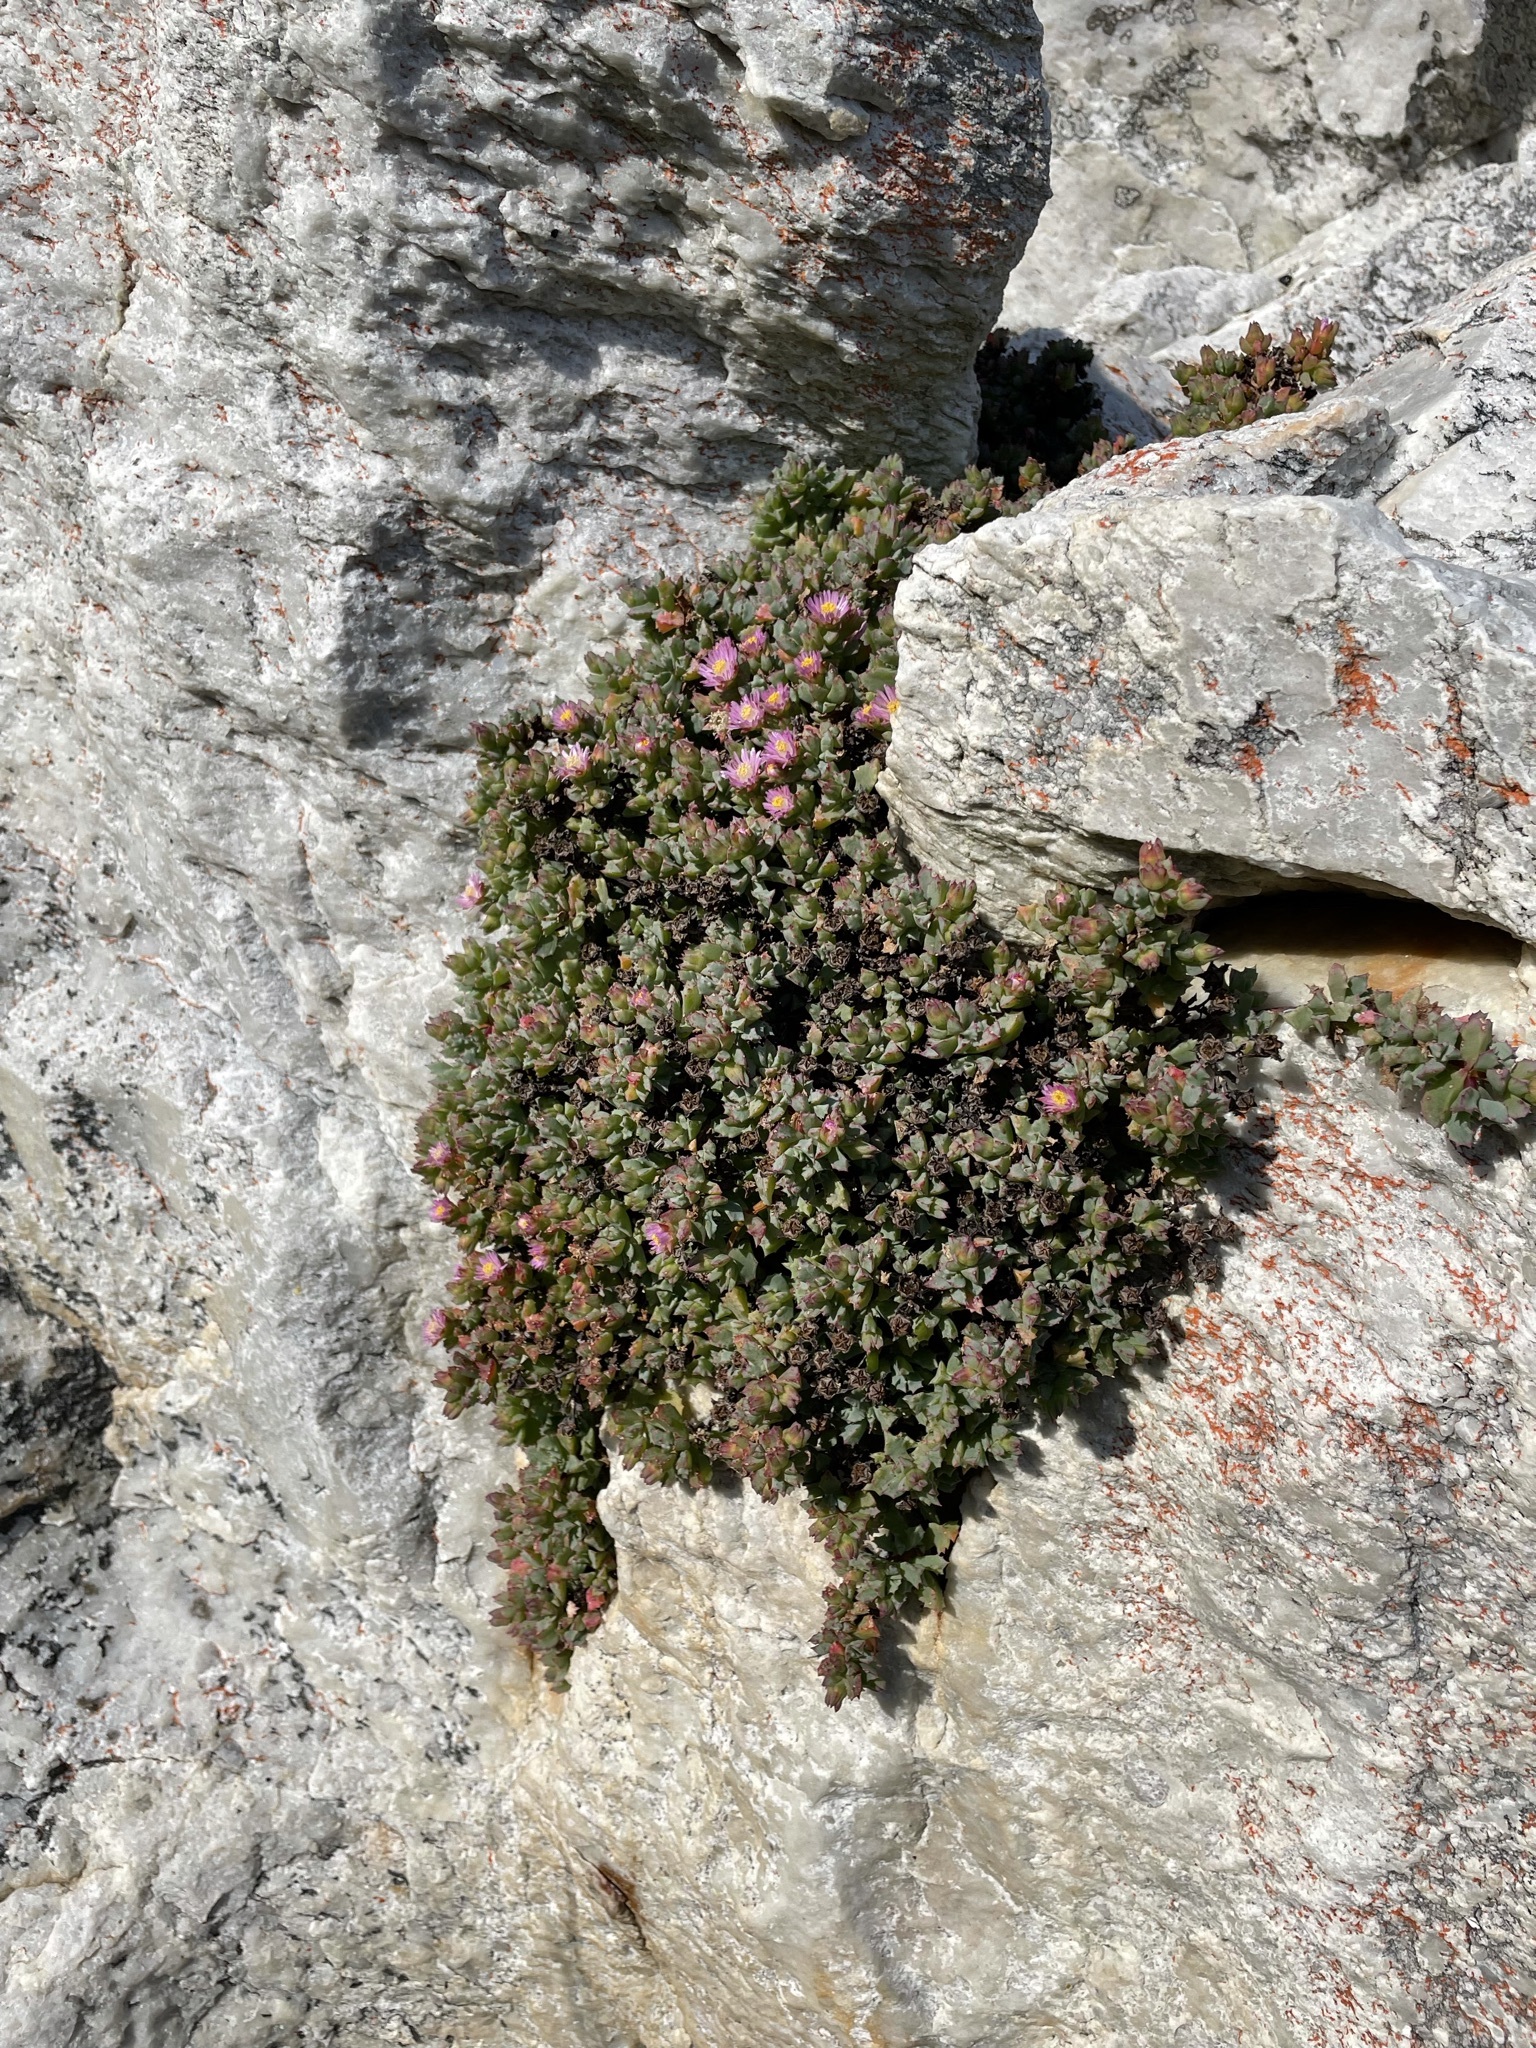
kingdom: Plantae
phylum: Tracheophyta
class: Magnoliopsida
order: Caryophyllales
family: Aizoaceae
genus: Oscularia
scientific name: Oscularia deltoides
